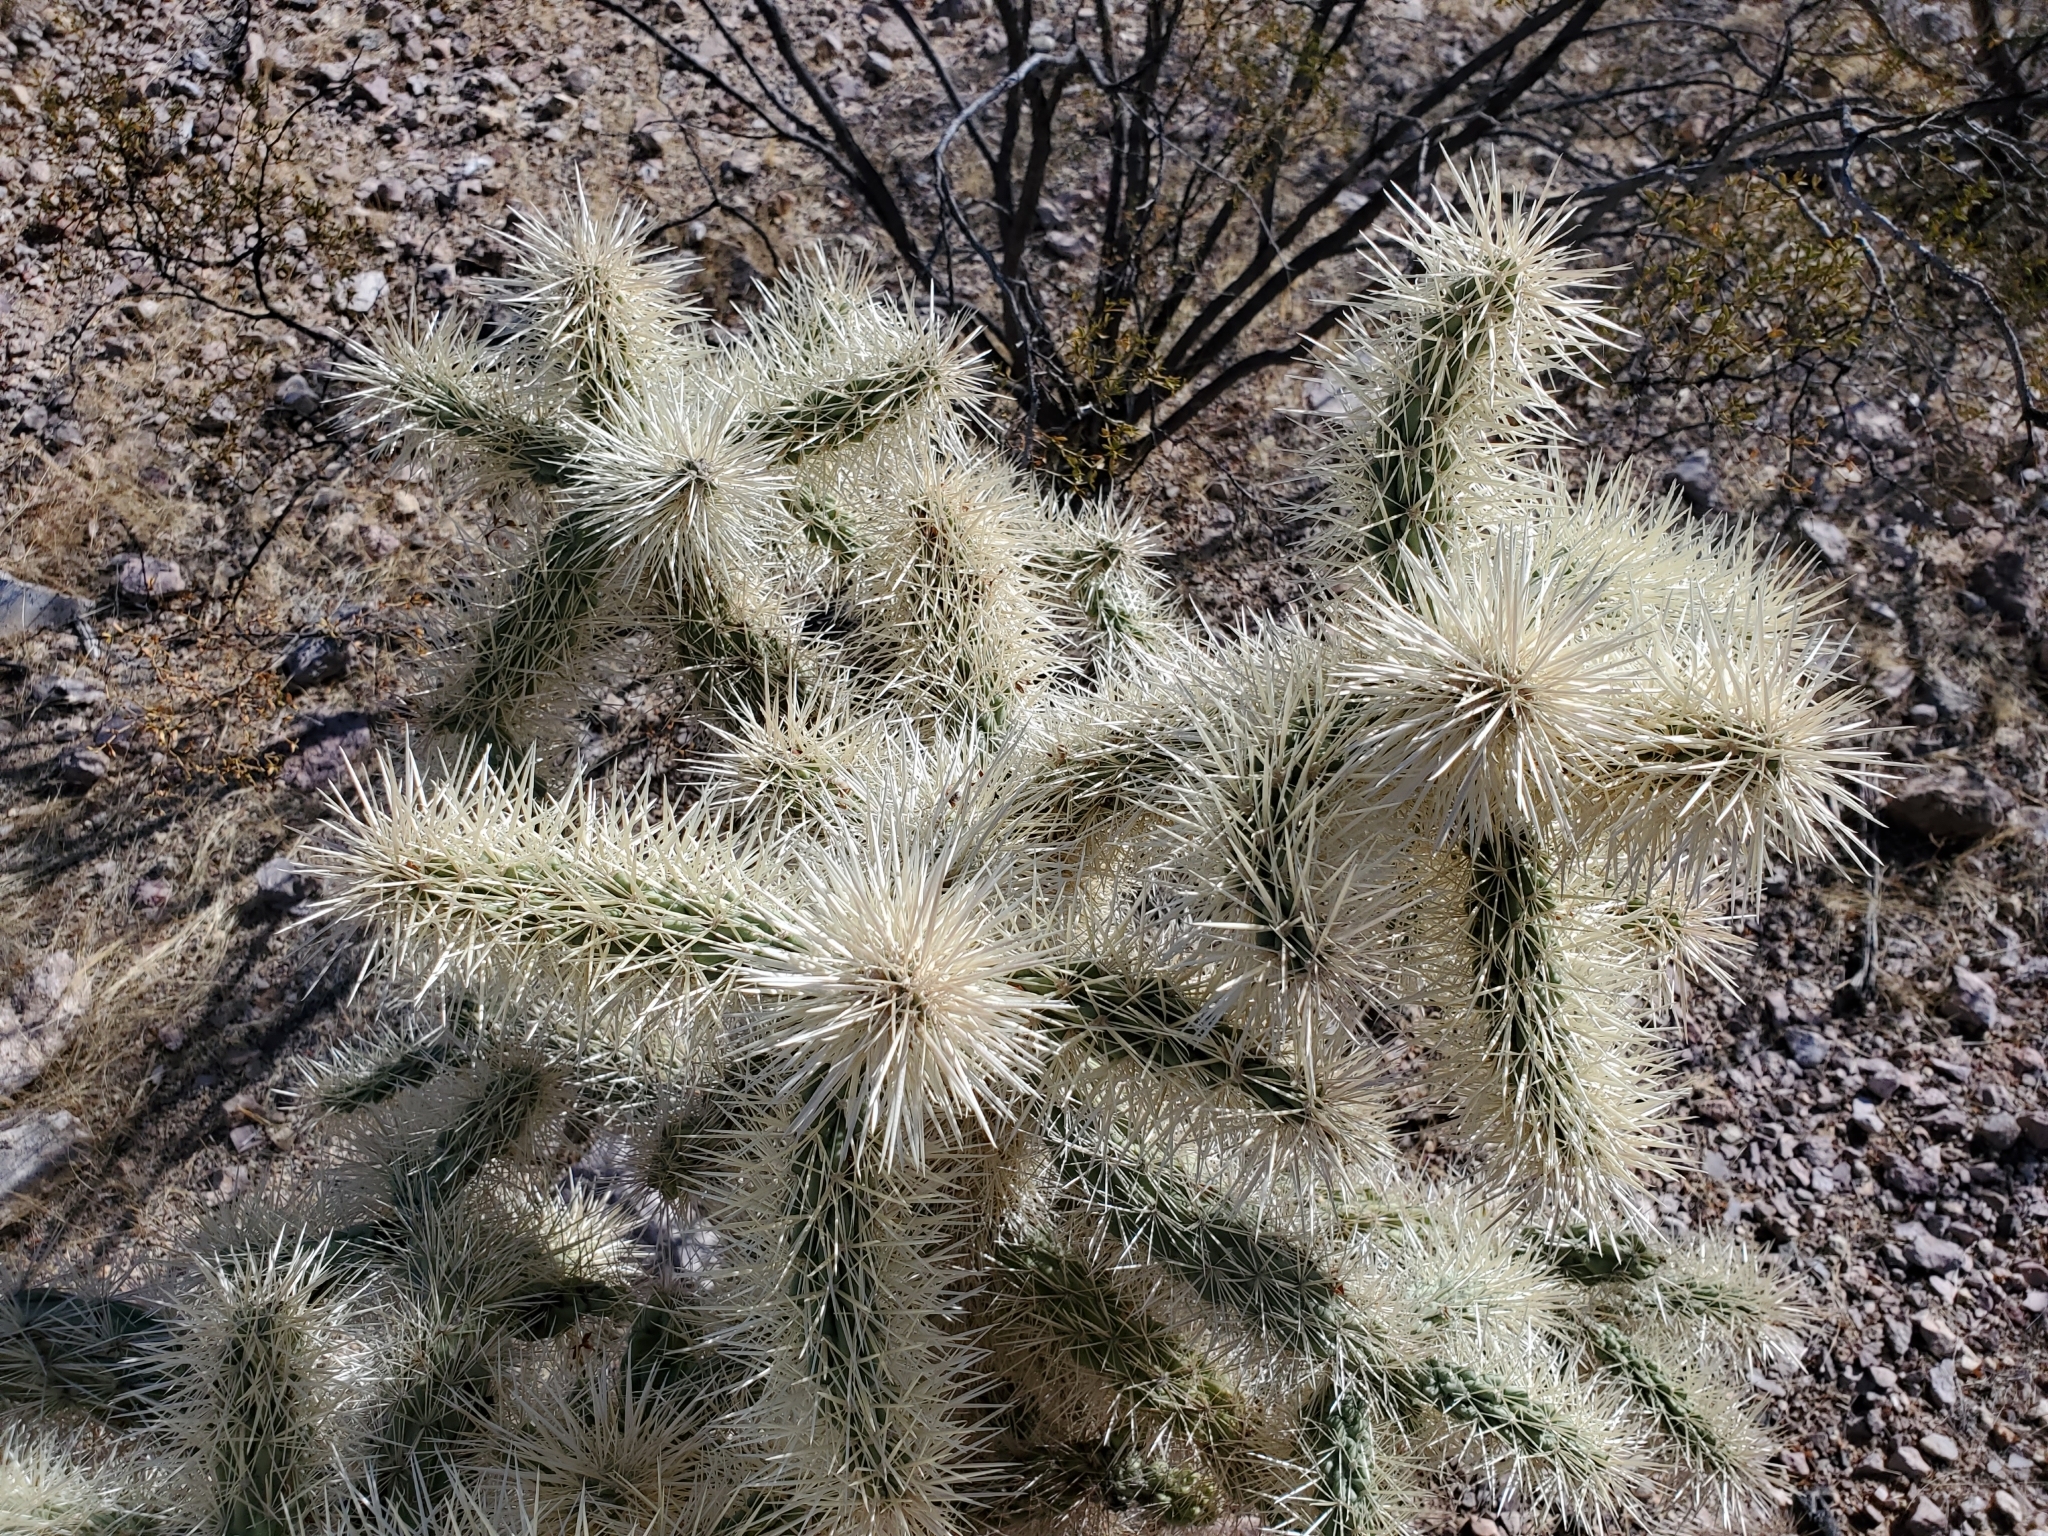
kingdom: Plantae
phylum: Tracheophyta
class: Magnoliopsida
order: Caryophyllales
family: Cactaceae
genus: Cylindropuntia
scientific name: Cylindropuntia fulgida
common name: Jumping cholla
